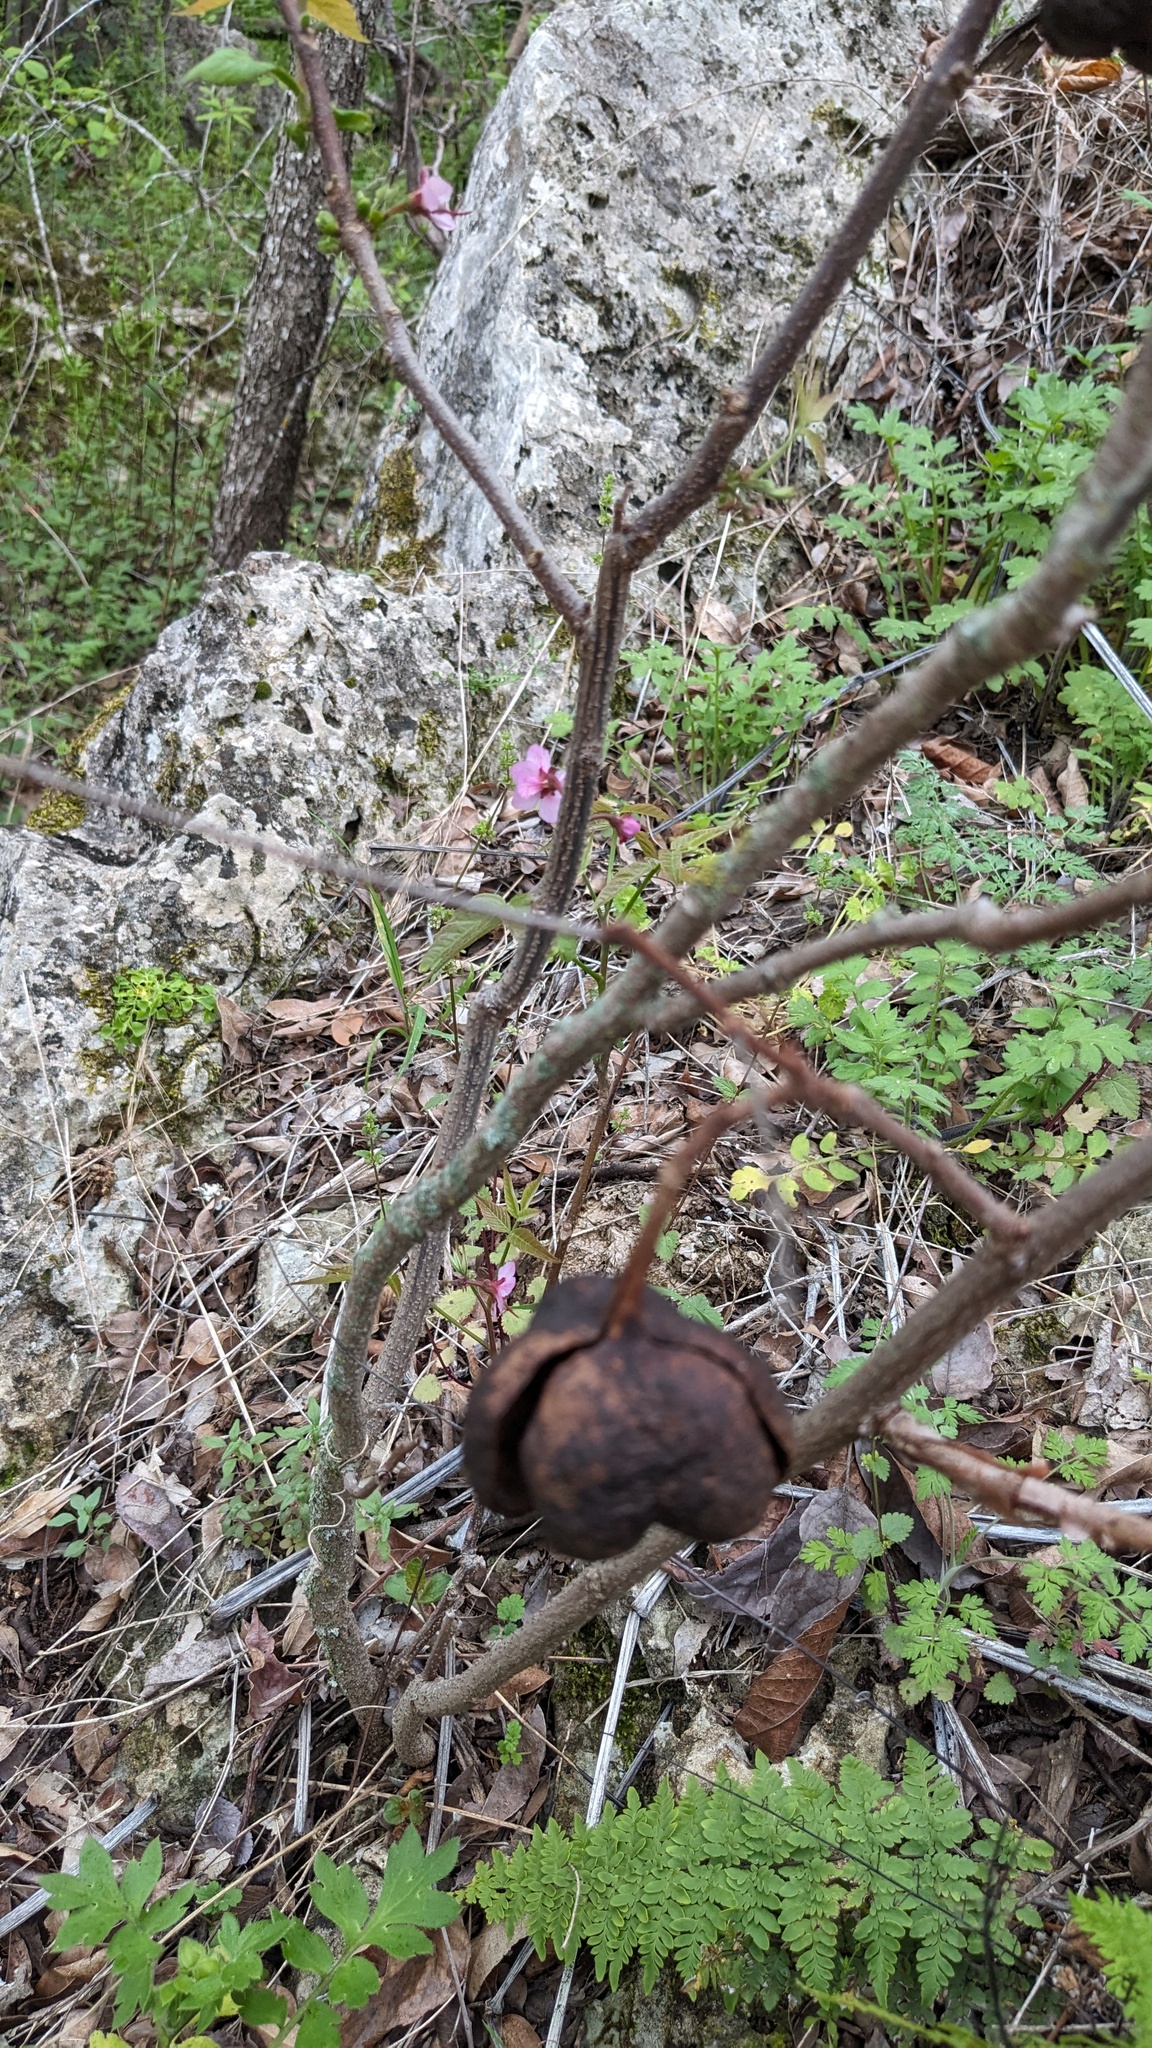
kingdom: Plantae
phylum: Tracheophyta
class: Magnoliopsida
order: Sapindales
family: Sapindaceae
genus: Ungnadia
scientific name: Ungnadia speciosa
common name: Texas-buckeye
